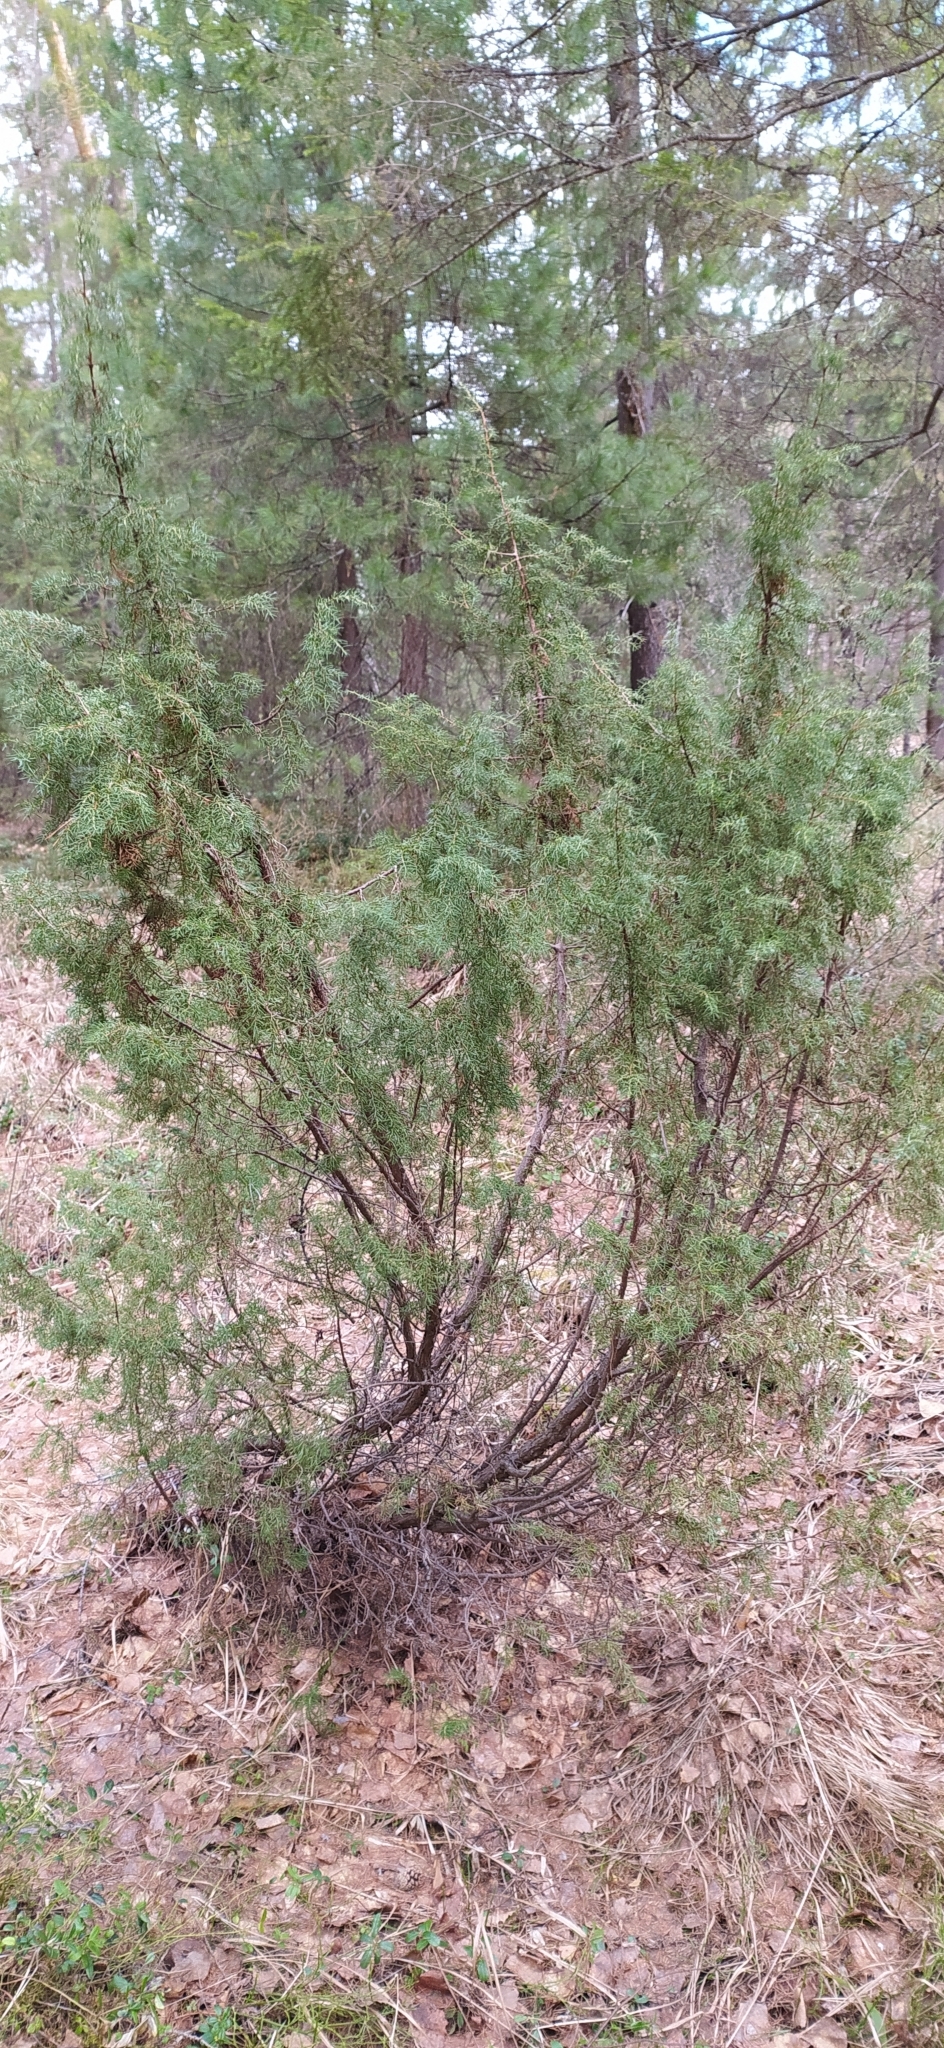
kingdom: Plantae
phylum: Tracheophyta
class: Pinopsida
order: Pinales
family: Cupressaceae
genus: Juniperus
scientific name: Juniperus communis
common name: Common juniper
